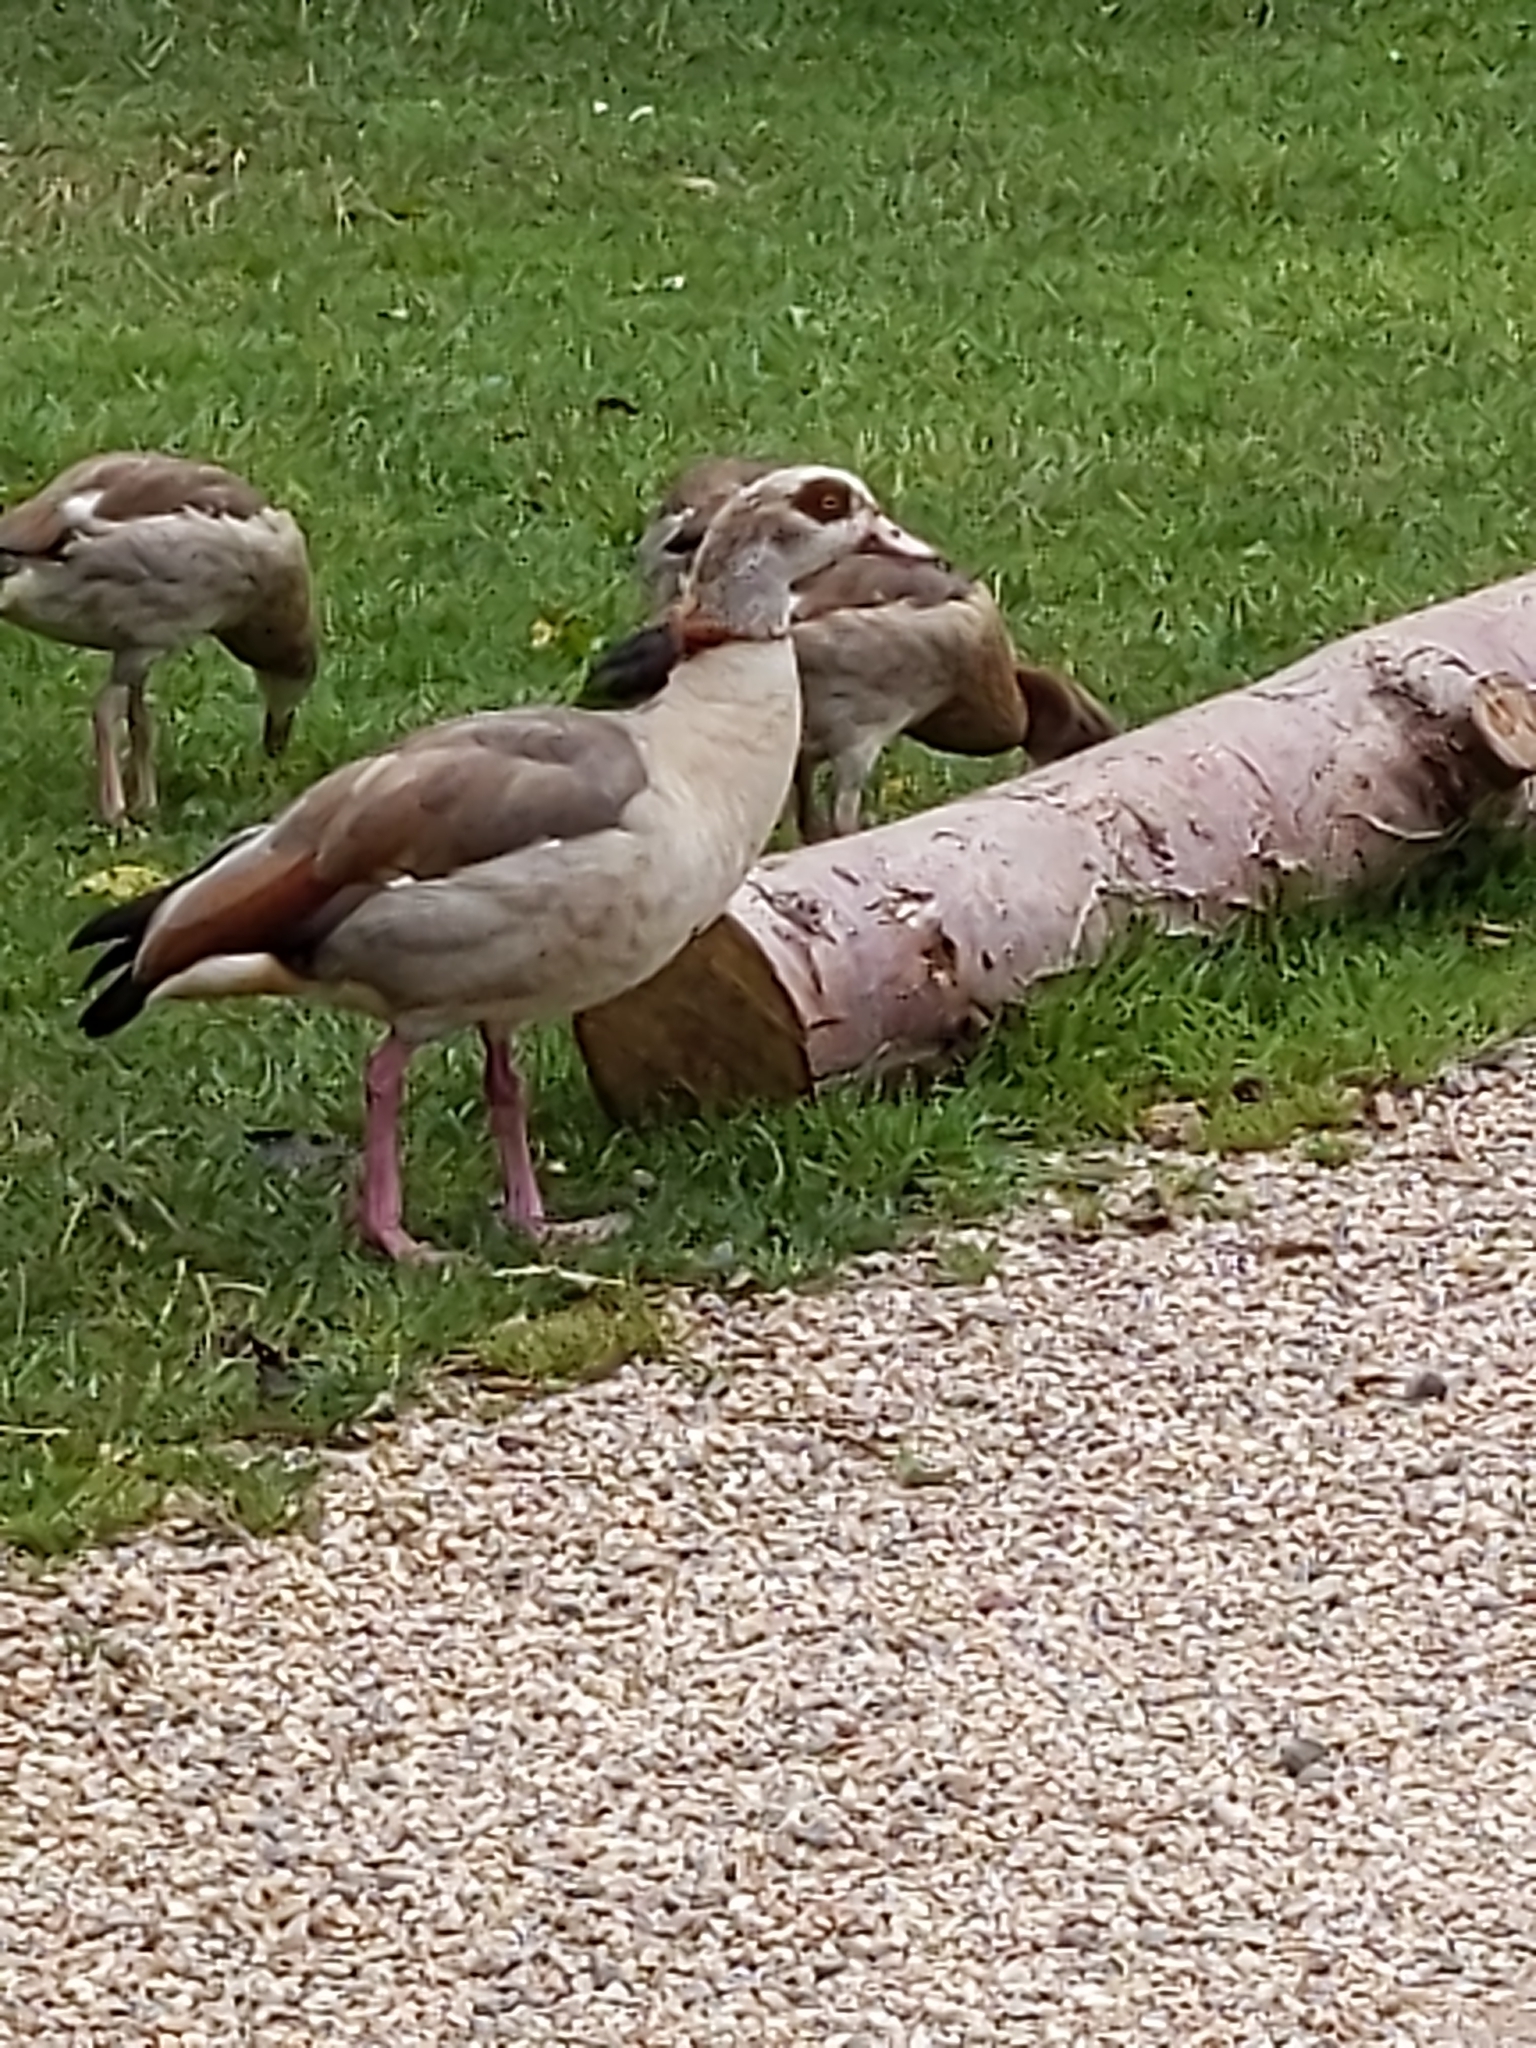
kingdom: Animalia
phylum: Chordata
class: Aves
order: Anseriformes
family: Anatidae
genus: Alopochen
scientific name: Alopochen aegyptiaca
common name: Egyptian goose
